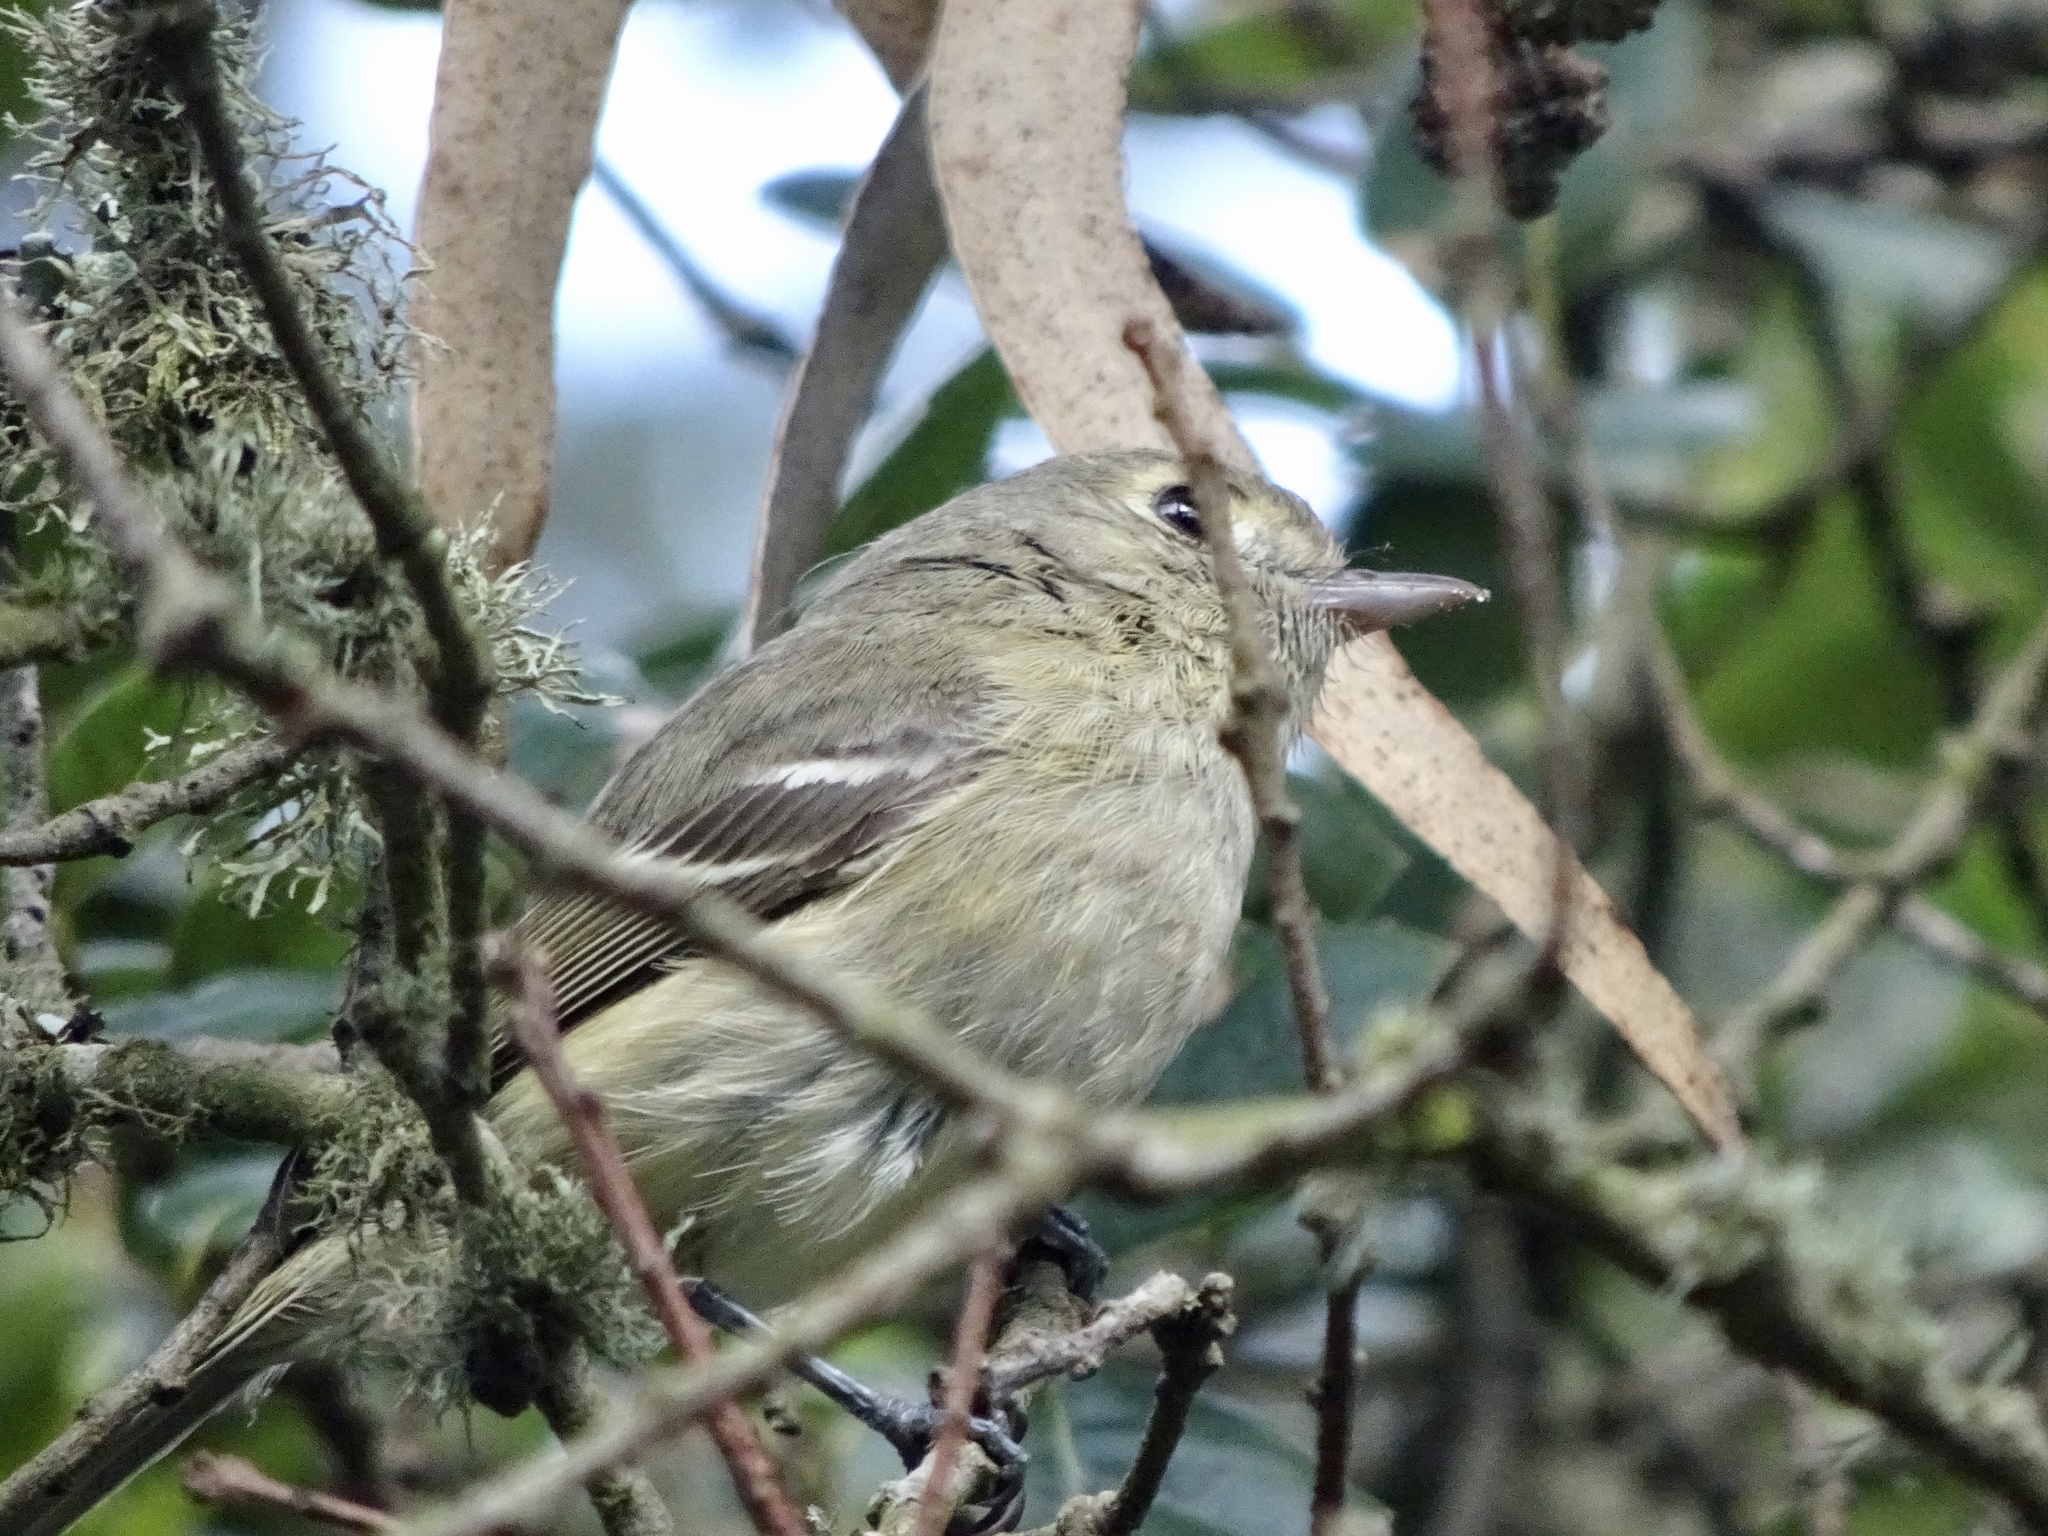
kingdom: Animalia
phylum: Chordata
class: Aves
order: Passeriformes
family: Vireonidae
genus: Vireo
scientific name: Vireo huttoni
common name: Hutton's vireo
